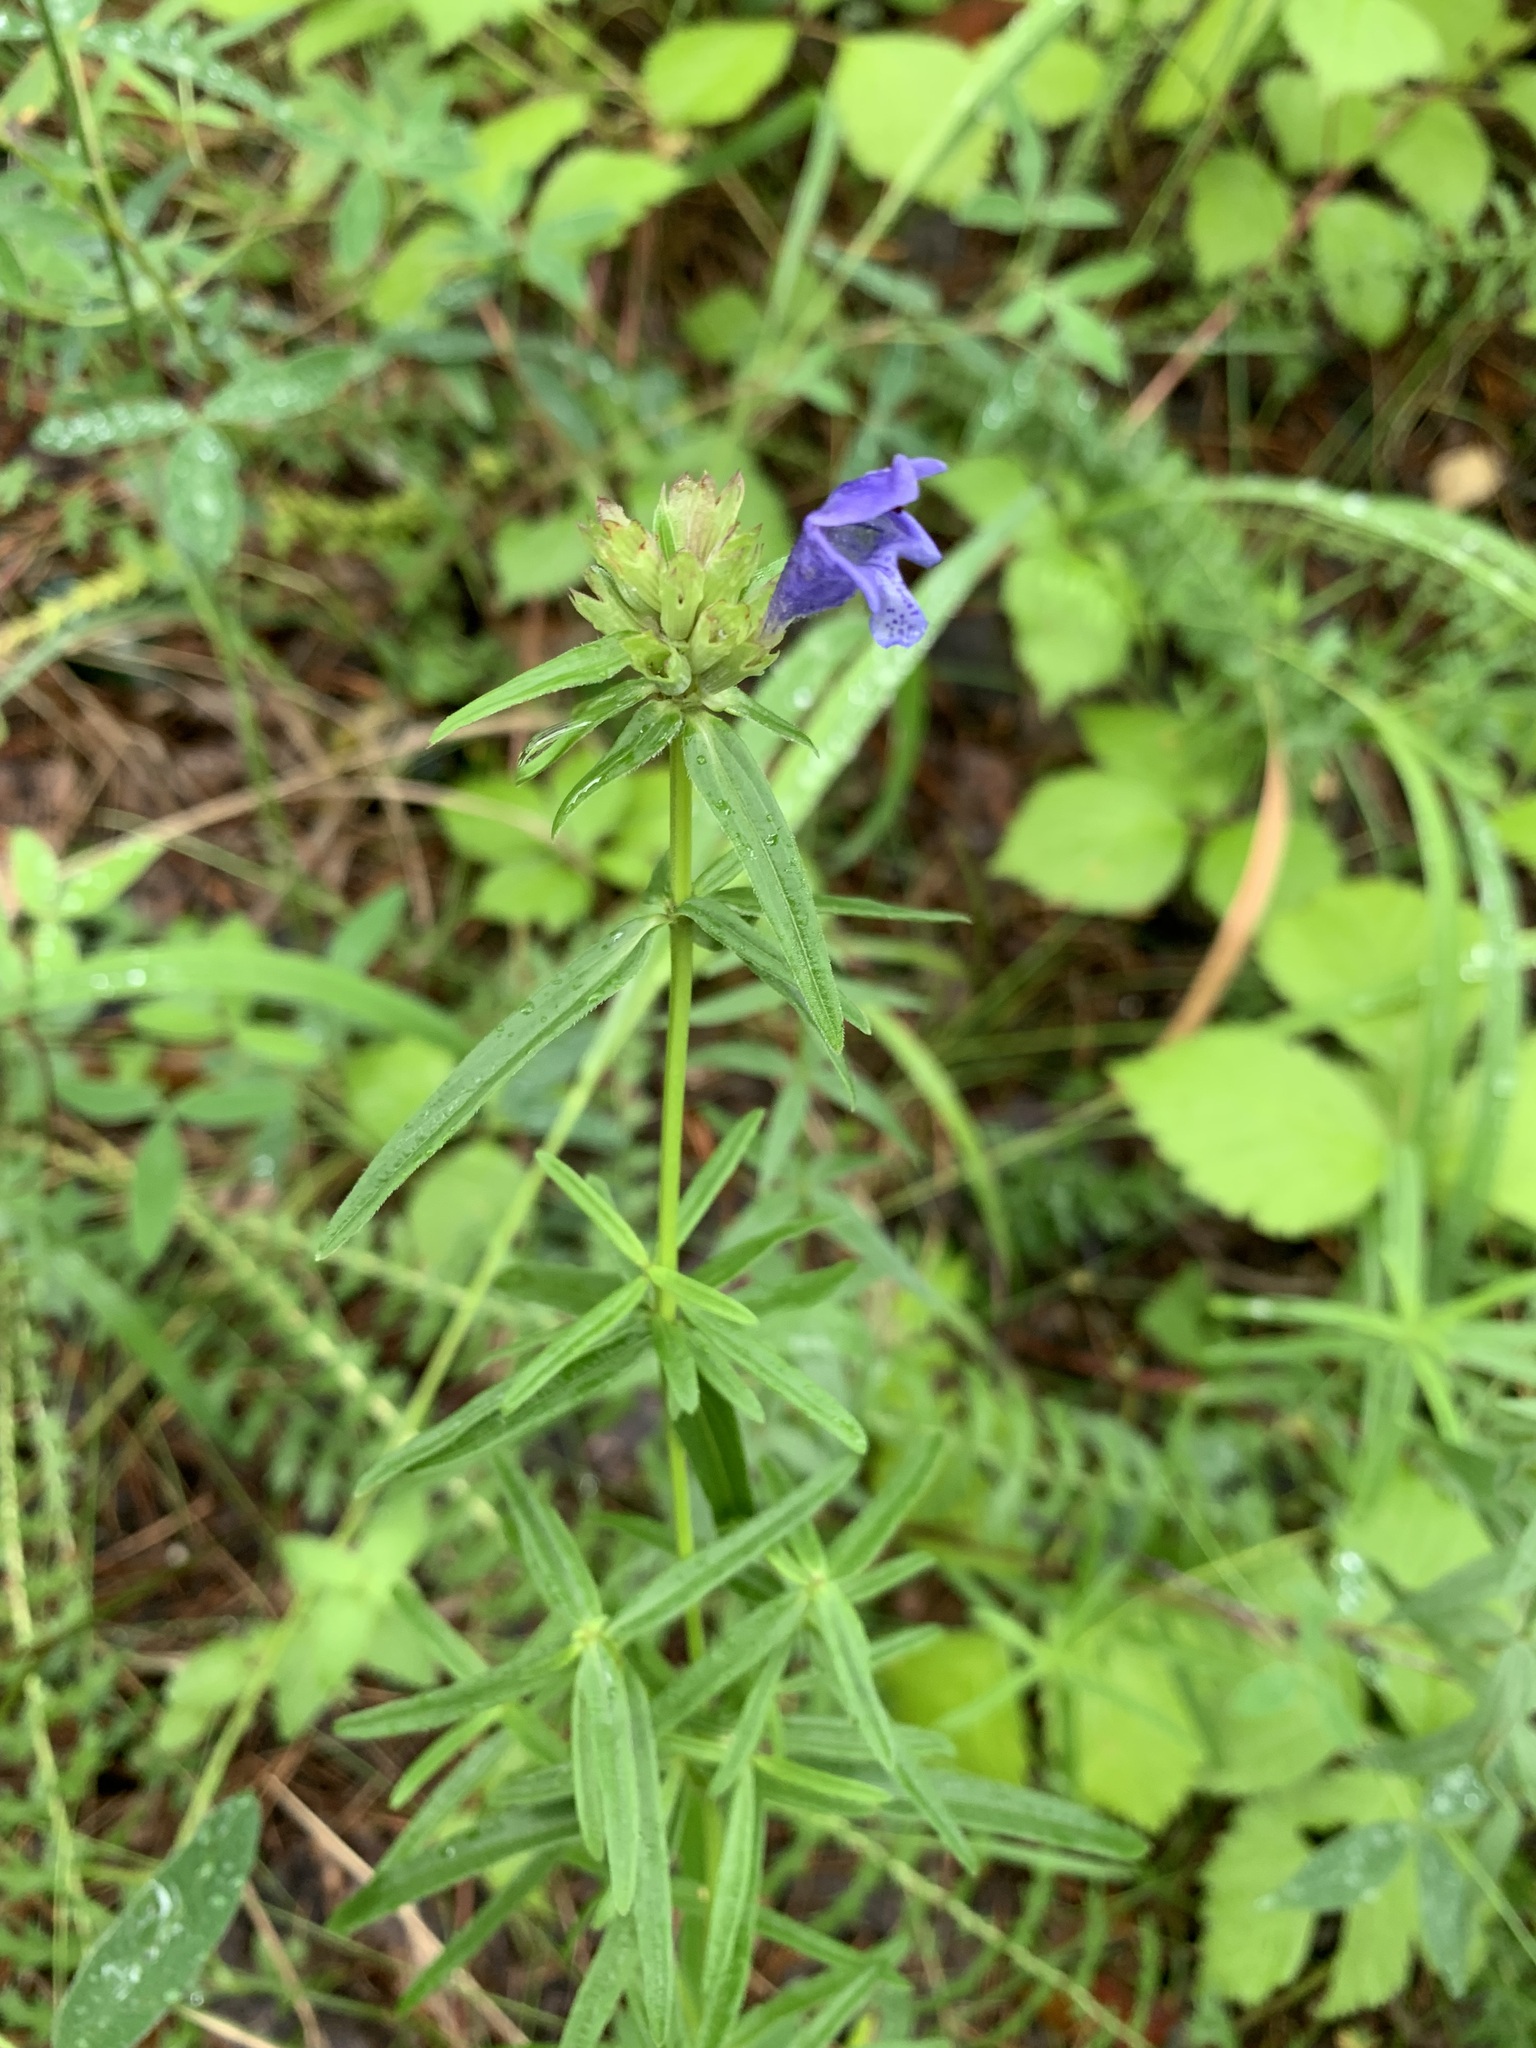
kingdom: Plantae
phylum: Tracheophyta
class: Magnoliopsida
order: Lamiales
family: Lamiaceae
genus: Dracocephalum
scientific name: Dracocephalum ruyschiana
